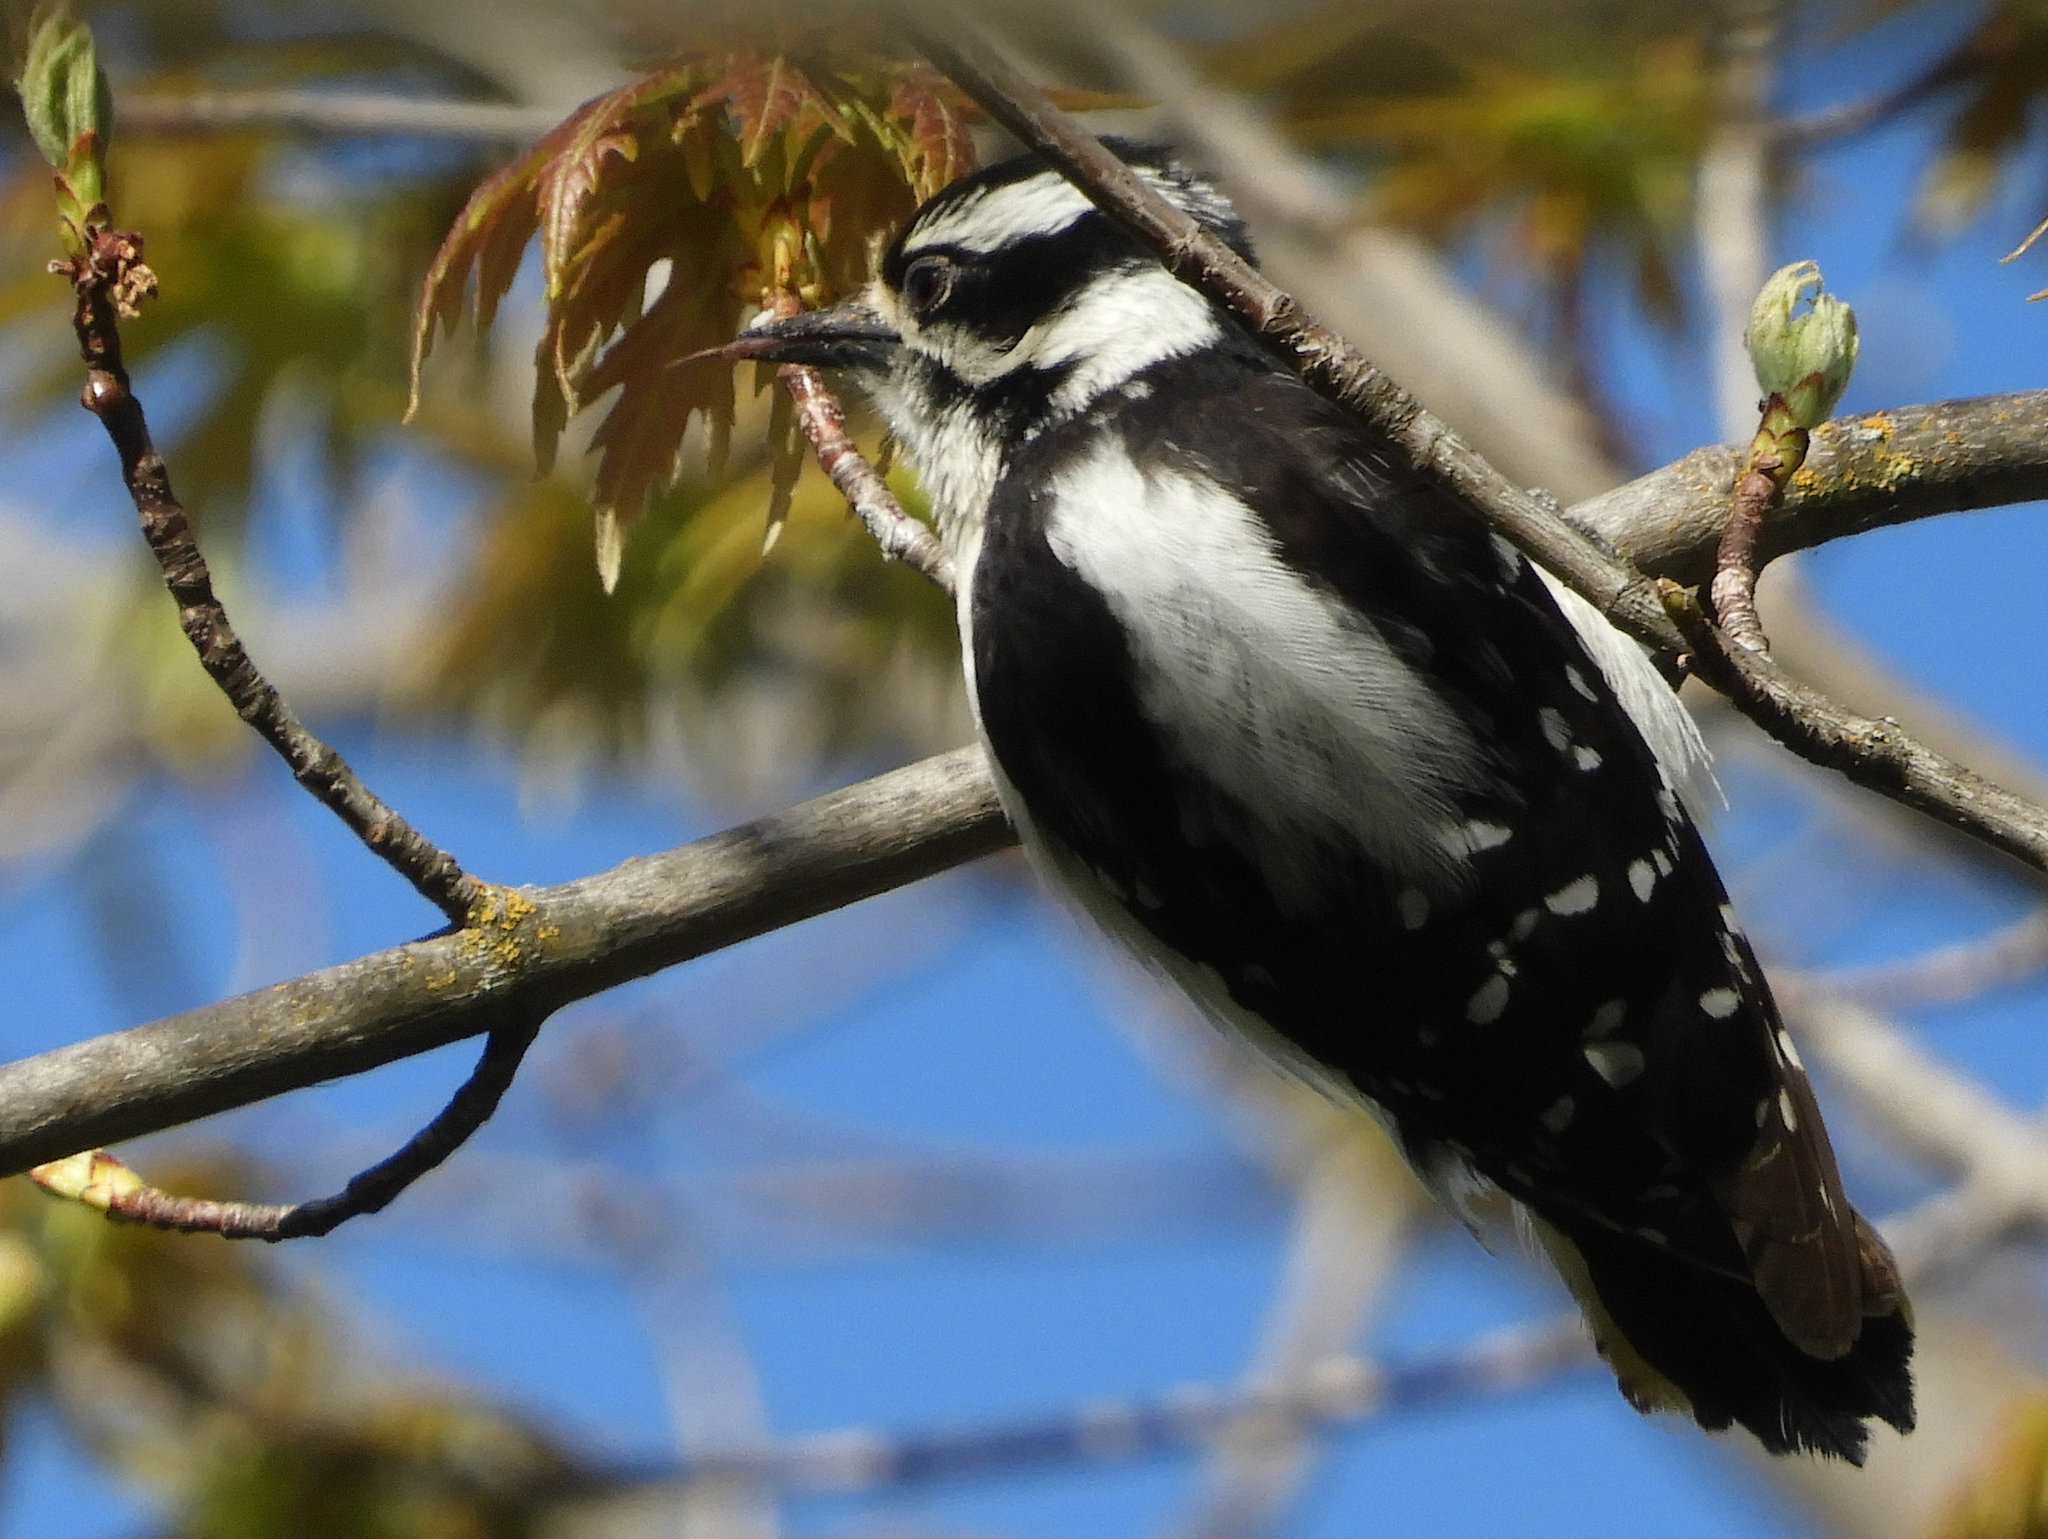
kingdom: Animalia
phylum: Chordata
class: Aves
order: Piciformes
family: Picidae
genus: Dryobates
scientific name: Dryobates pubescens
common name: Downy woodpecker
